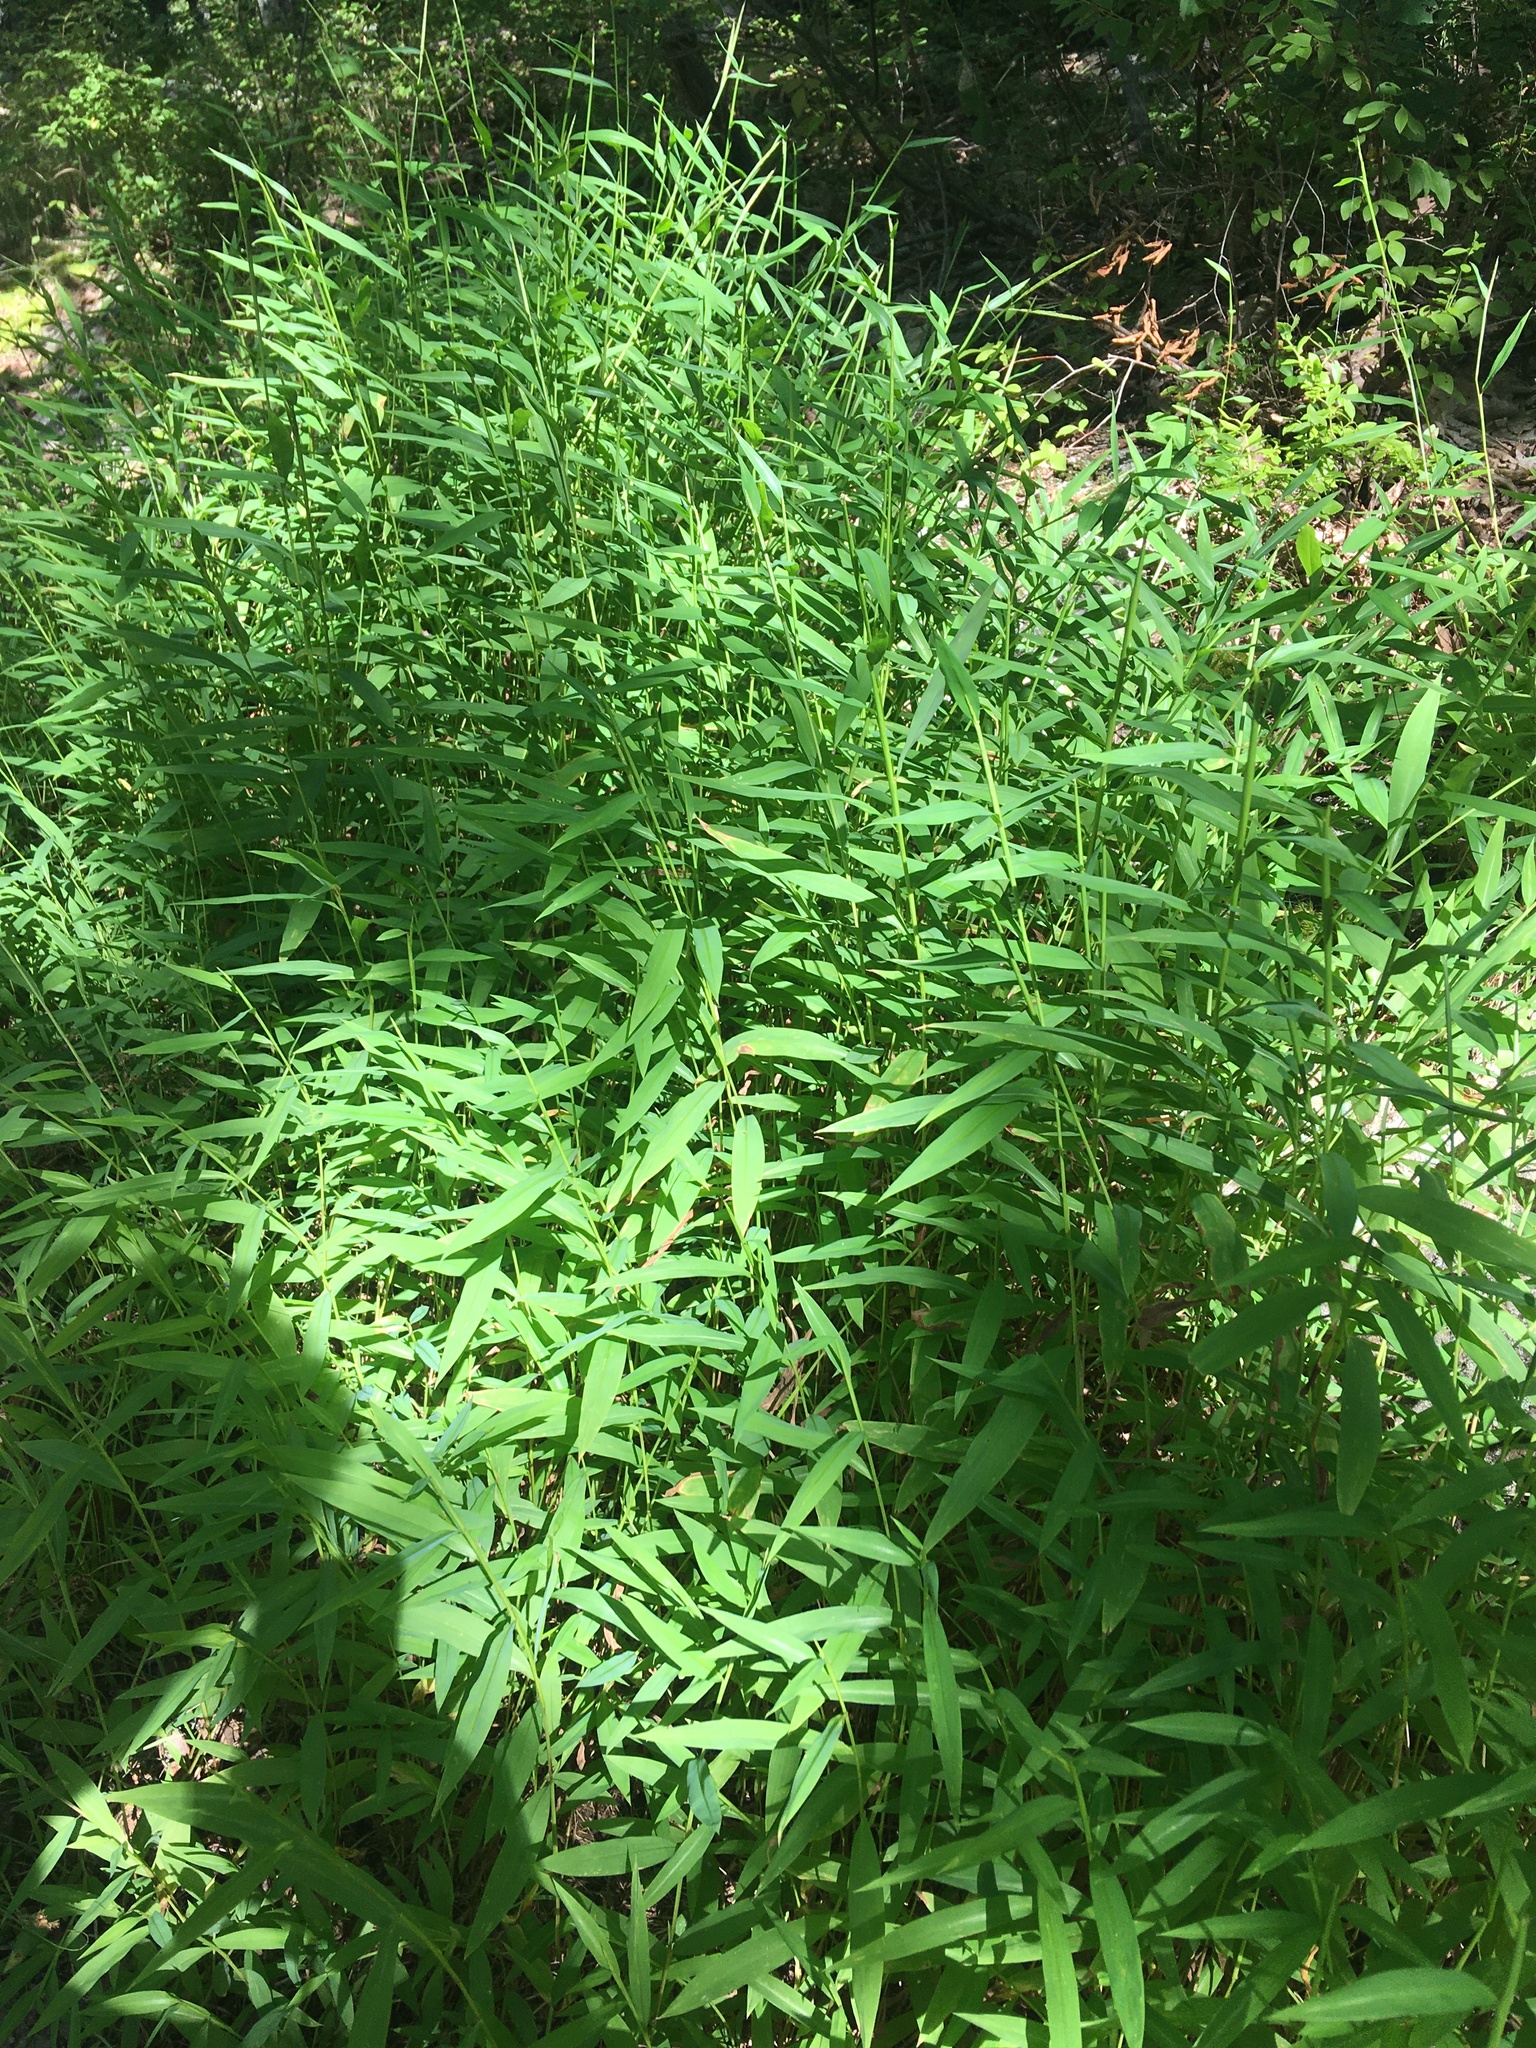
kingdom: Plantae
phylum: Tracheophyta
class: Liliopsida
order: Poales
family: Poaceae
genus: Microstegium
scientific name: Microstegium vimineum
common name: Japanese stiltgrass
